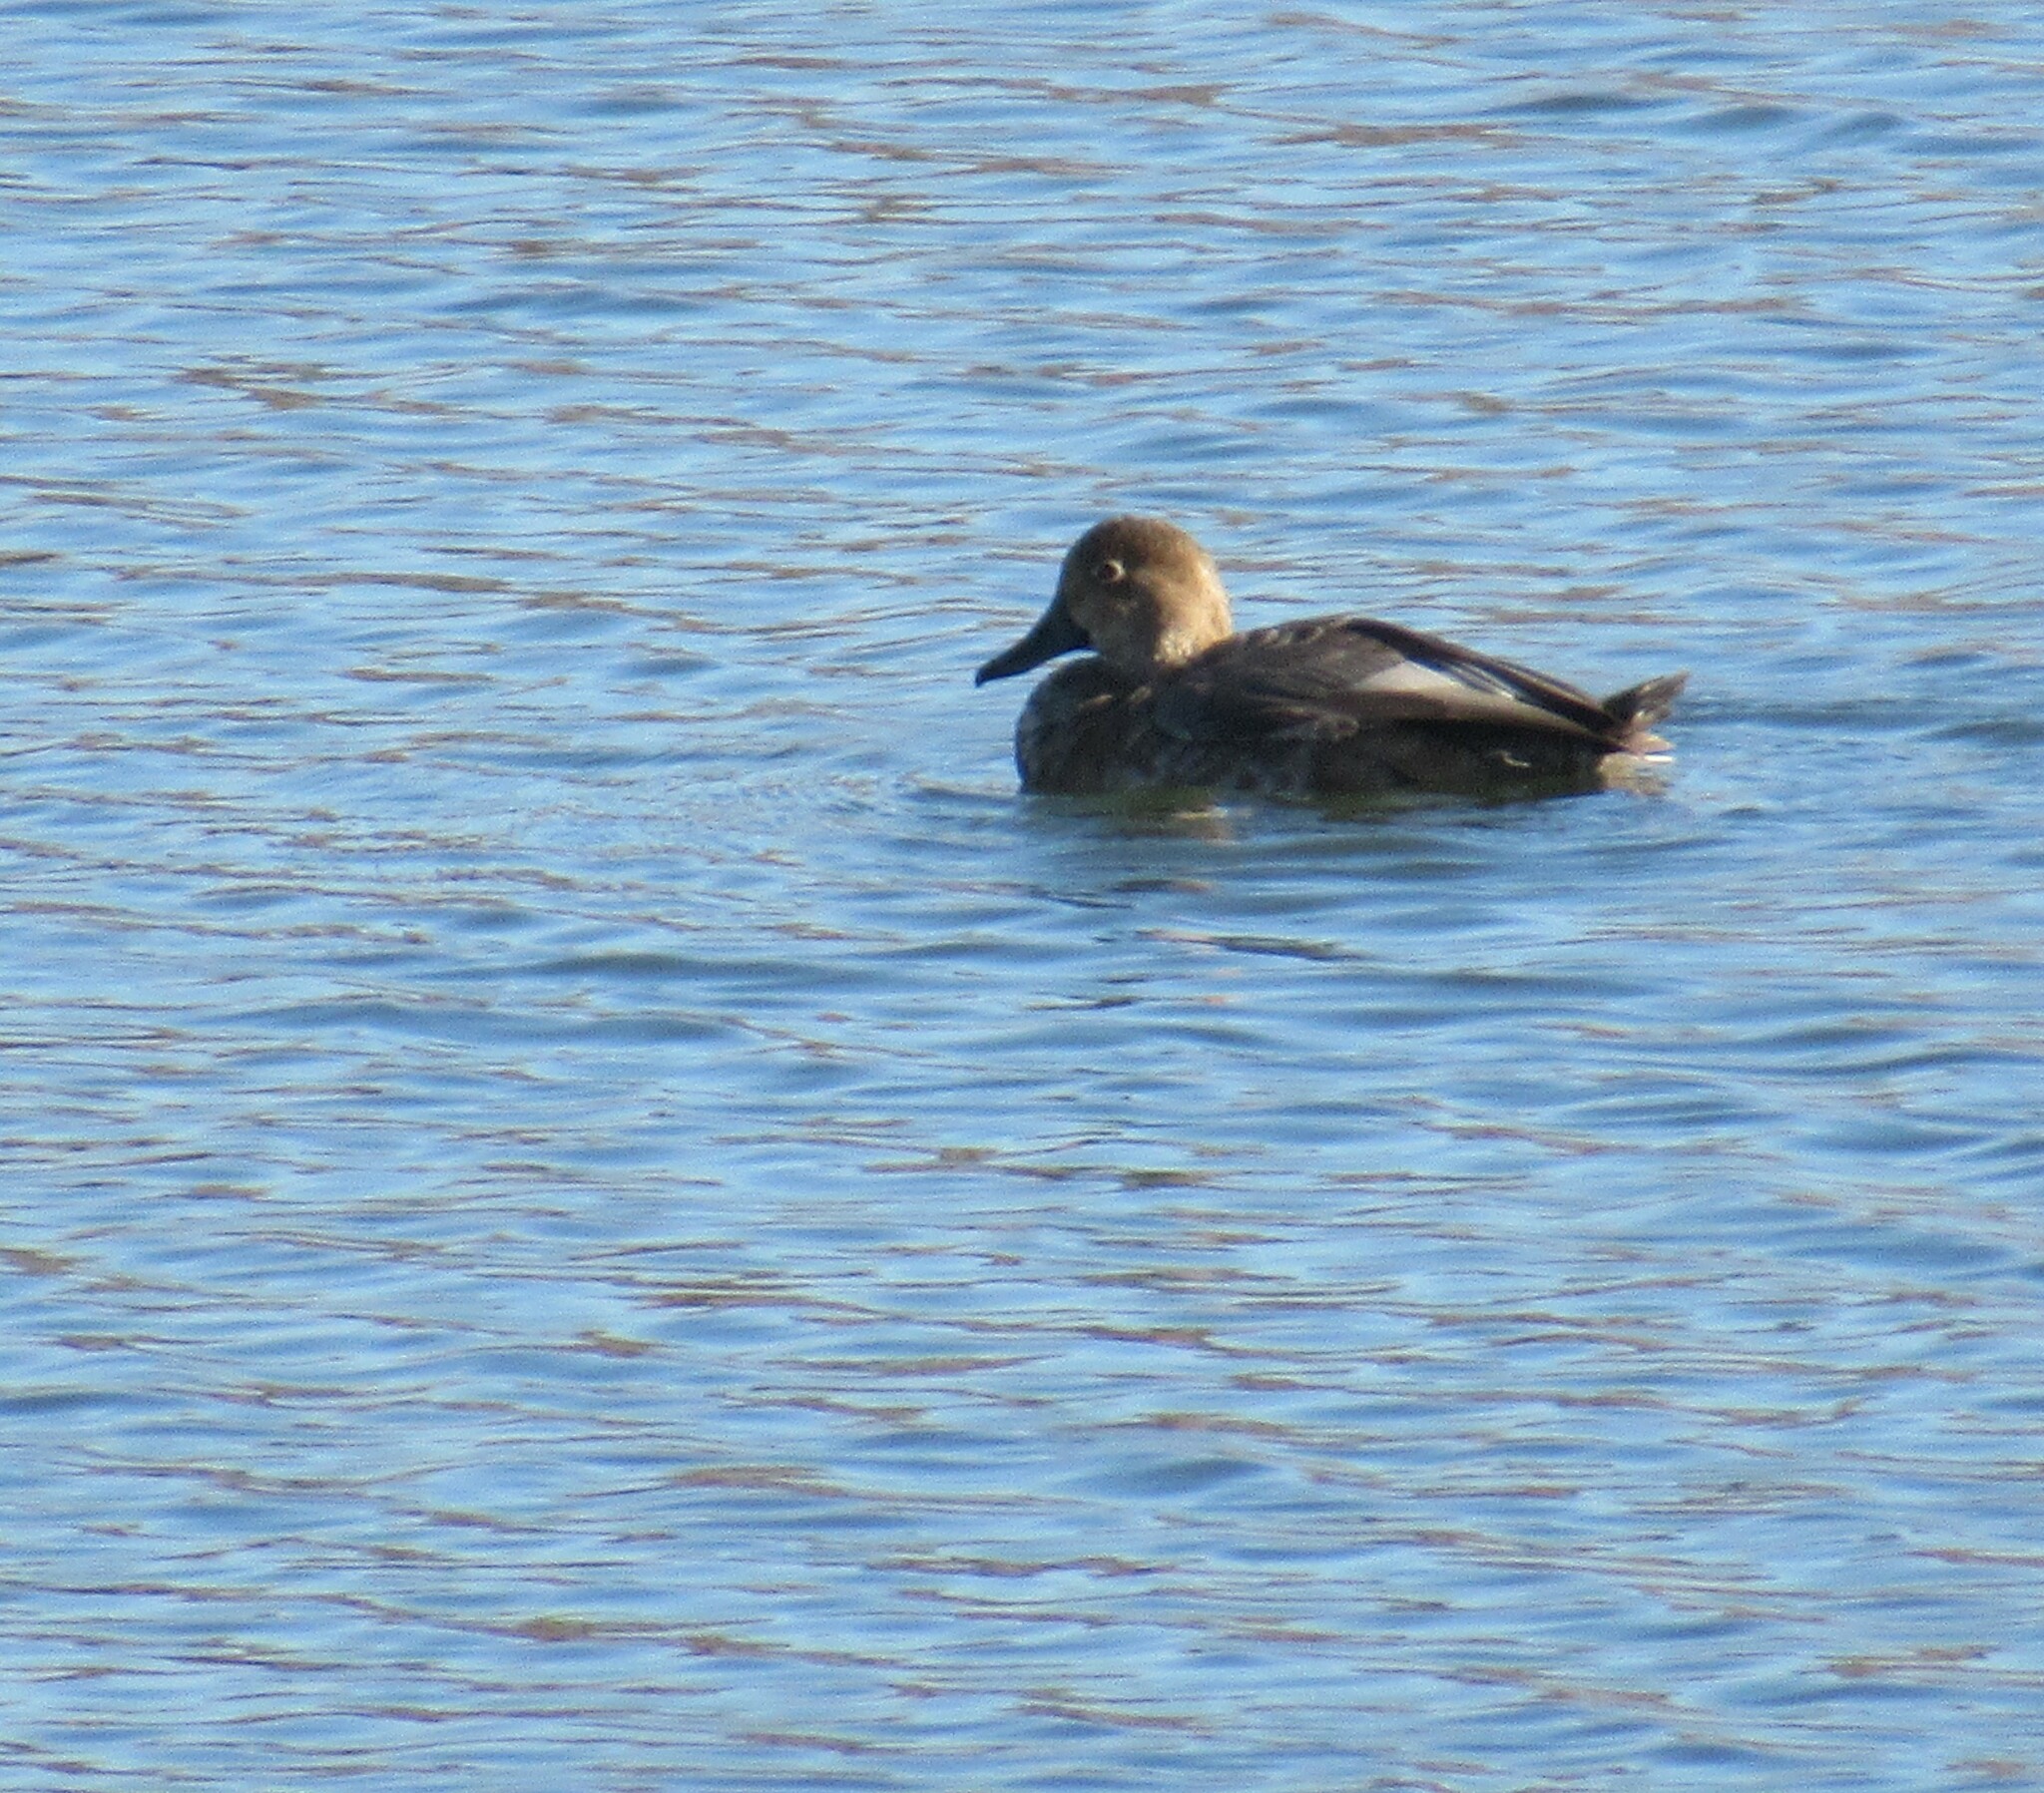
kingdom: Animalia
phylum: Chordata
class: Aves
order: Anseriformes
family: Anatidae
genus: Aythya
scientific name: Aythya americana
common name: Redhead
